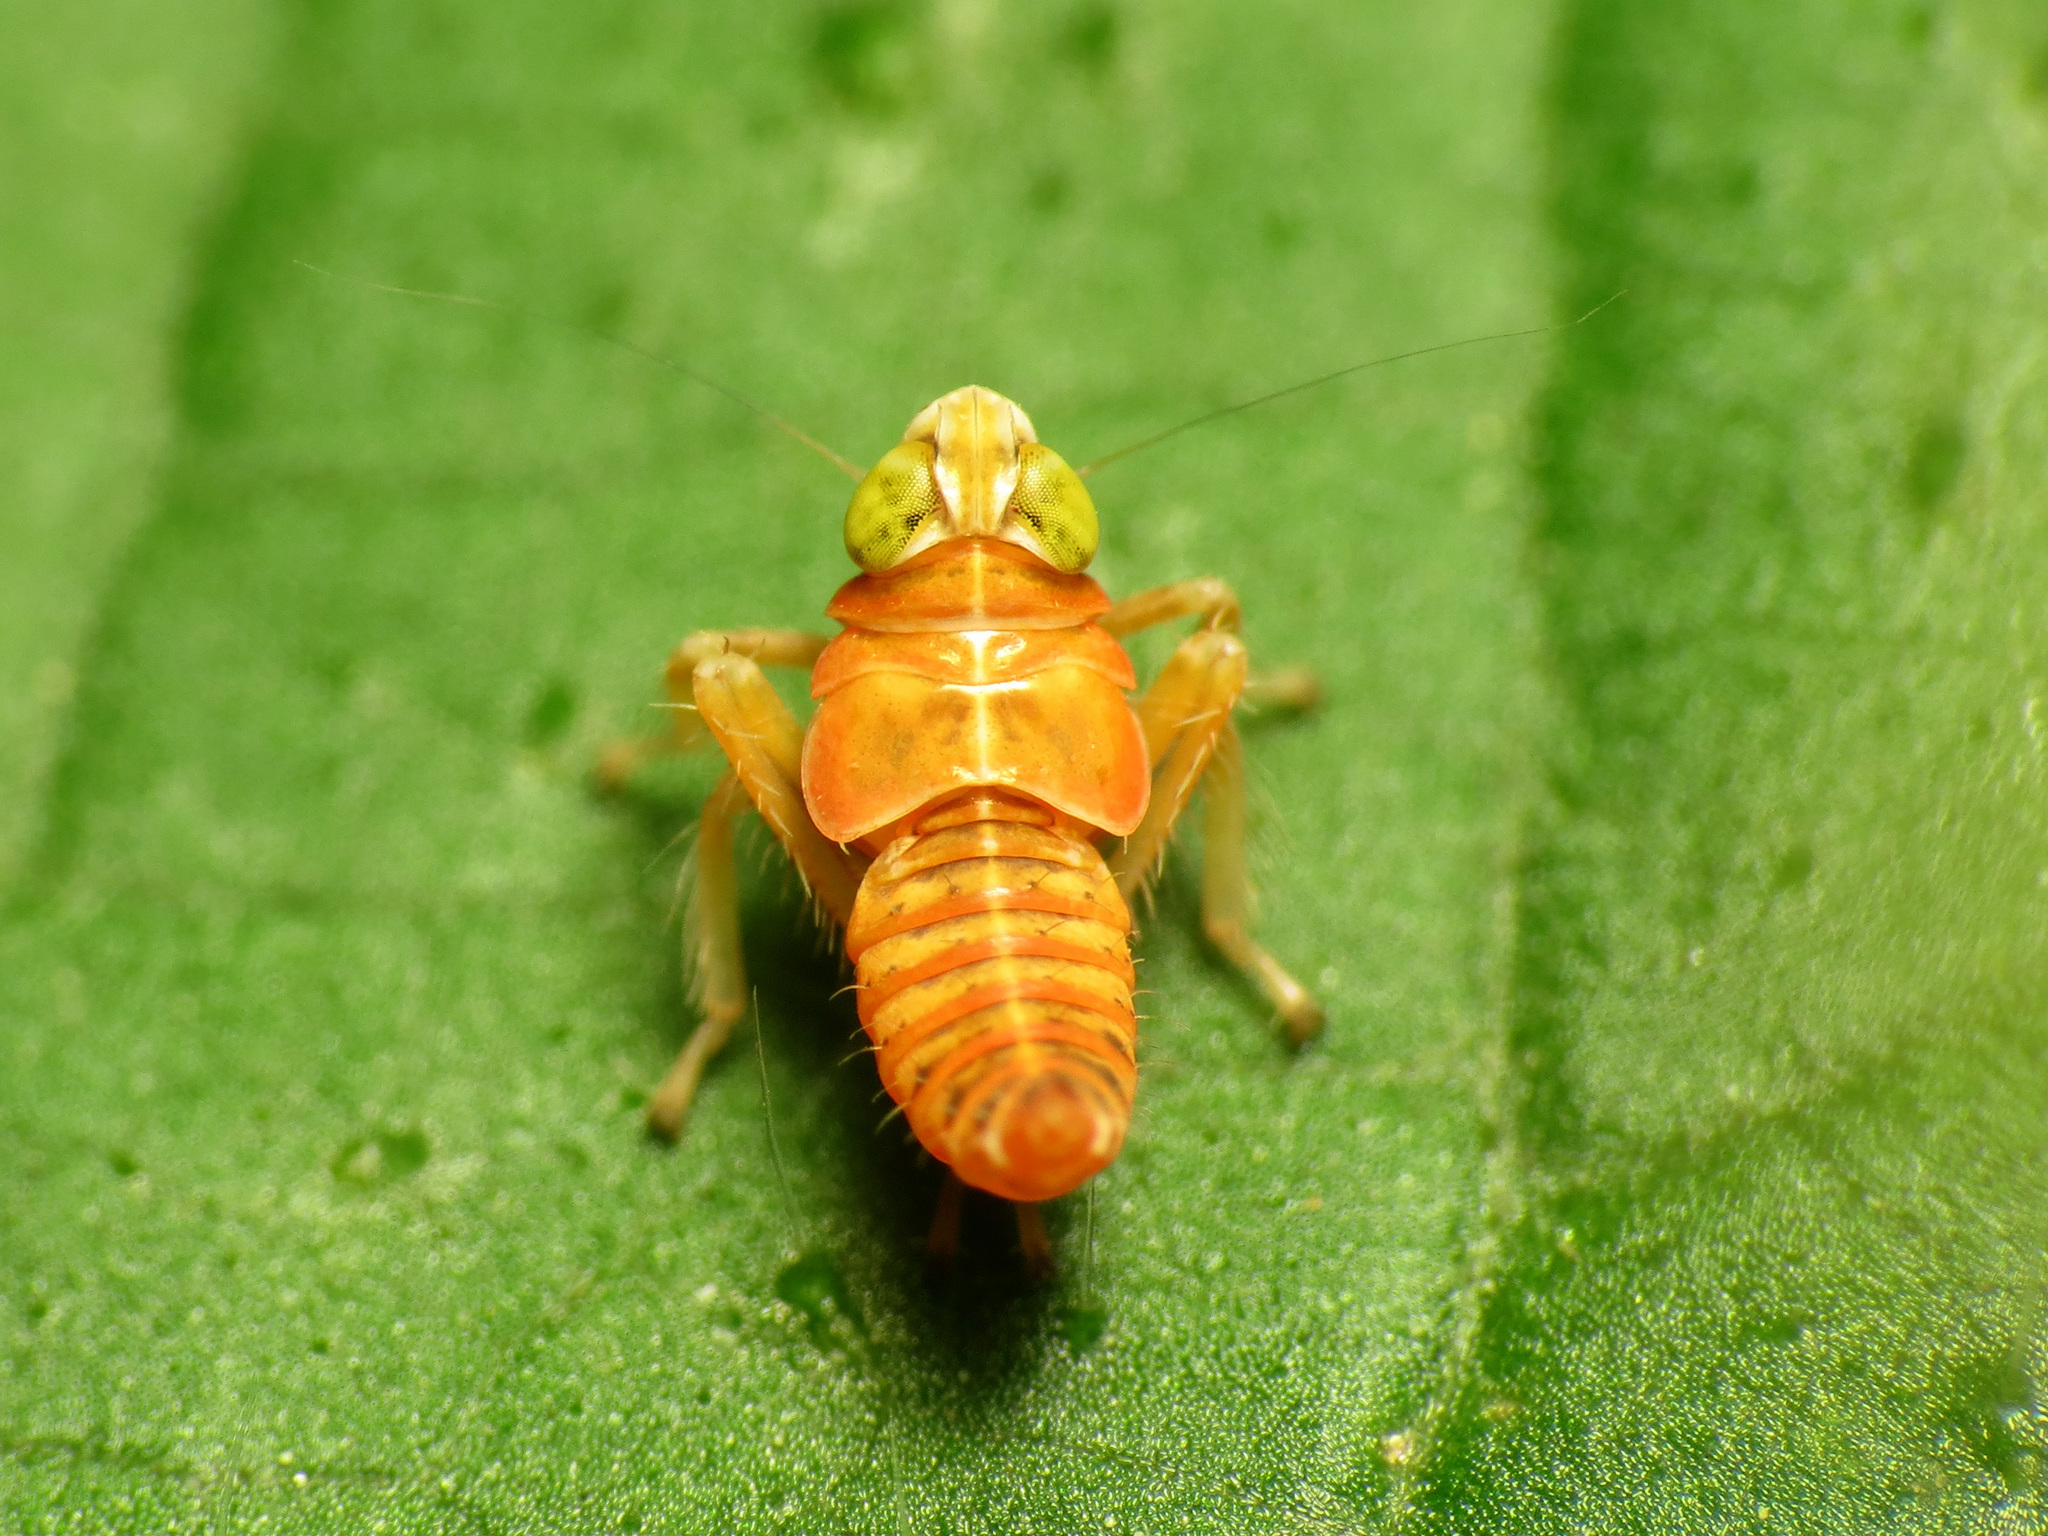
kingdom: Animalia
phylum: Arthropoda
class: Insecta
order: Hemiptera
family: Cicadellidae
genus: Jikradia
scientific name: Jikradia olitoria
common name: Coppery leafhopper
